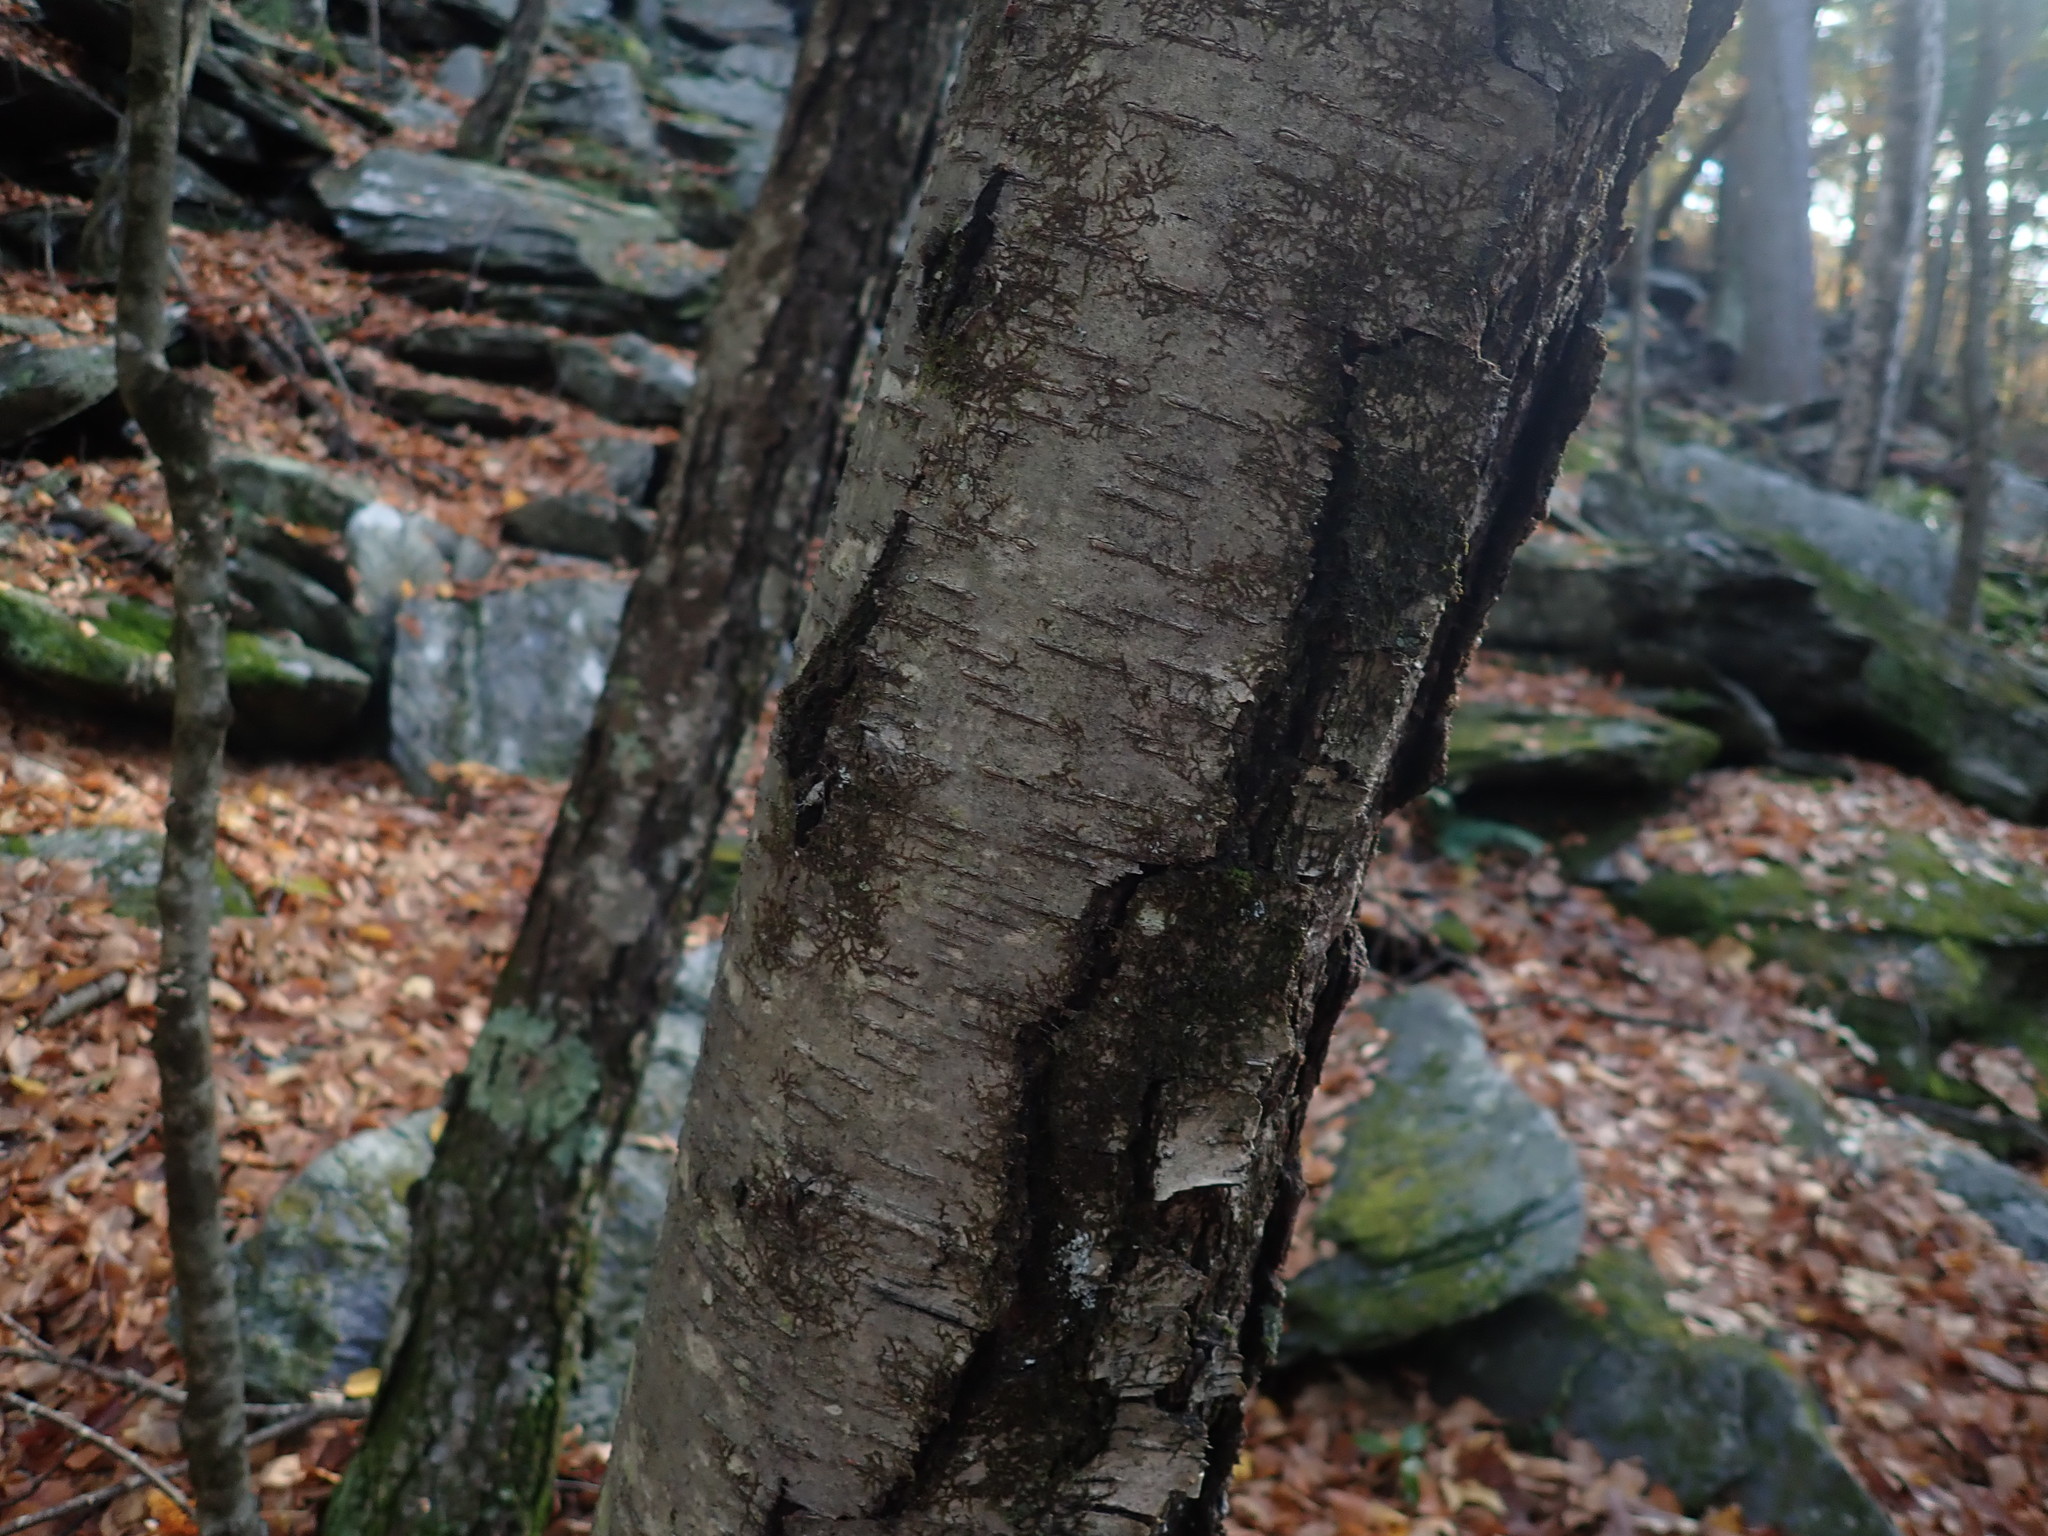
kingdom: Plantae
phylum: Tracheophyta
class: Magnoliopsida
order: Fagales
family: Betulaceae
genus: Betula
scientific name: Betula lenta
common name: Black birch
